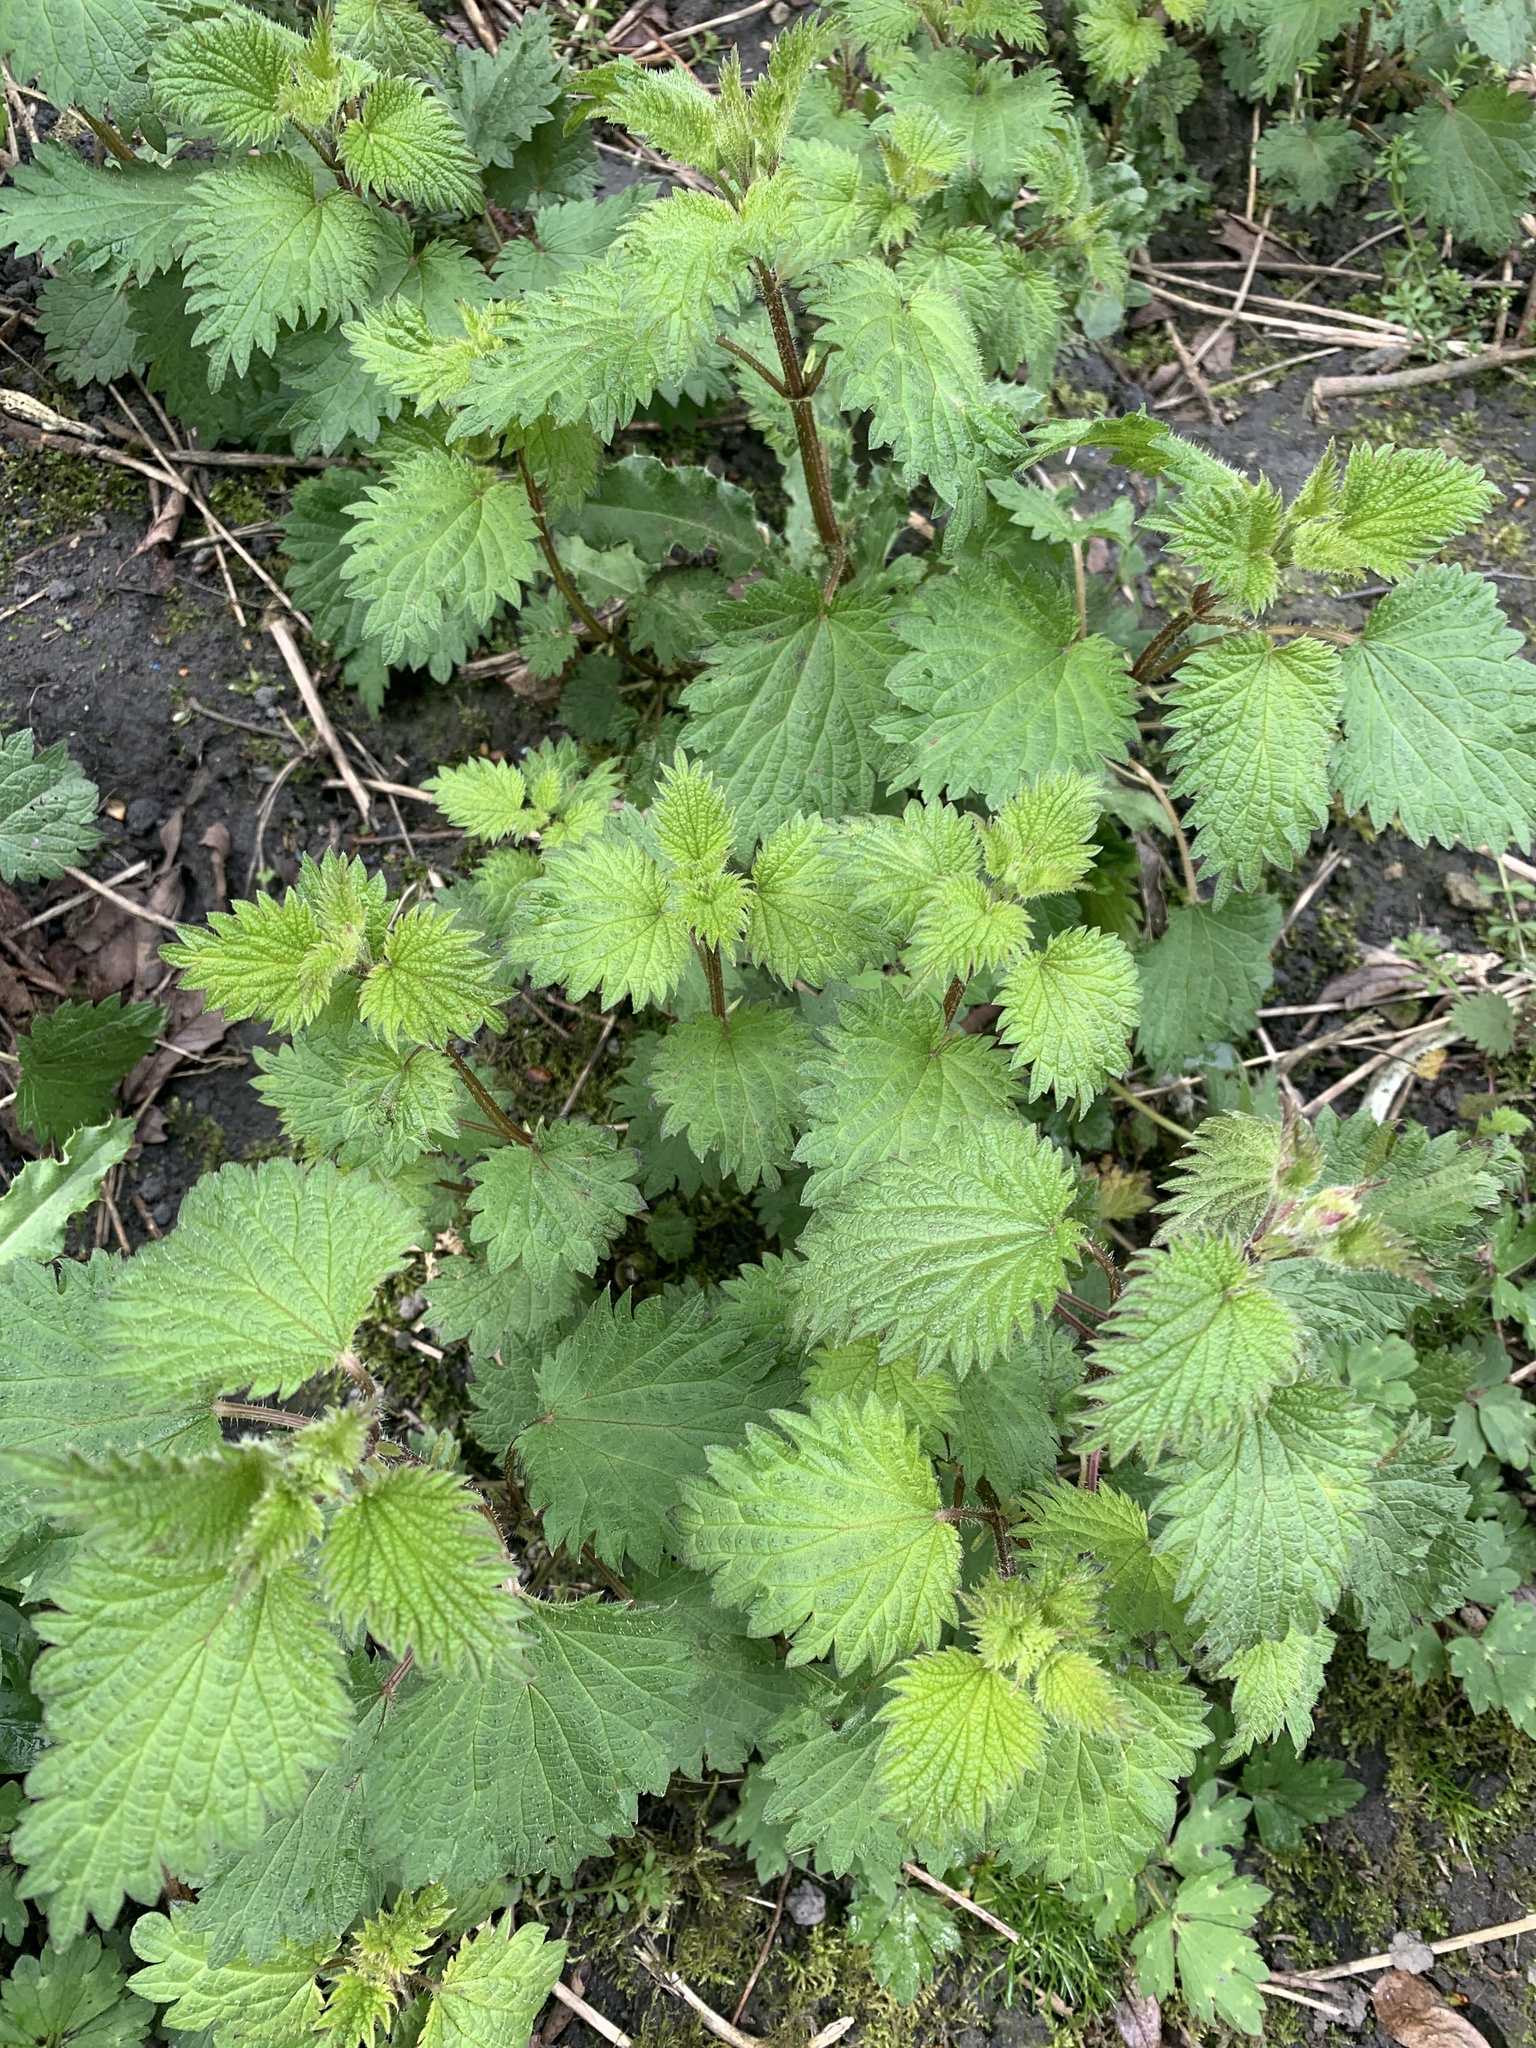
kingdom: Plantae
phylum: Tracheophyta
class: Magnoliopsida
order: Rosales
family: Urticaceae
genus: Urtica
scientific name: Urtica dioica
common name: Common nettle
